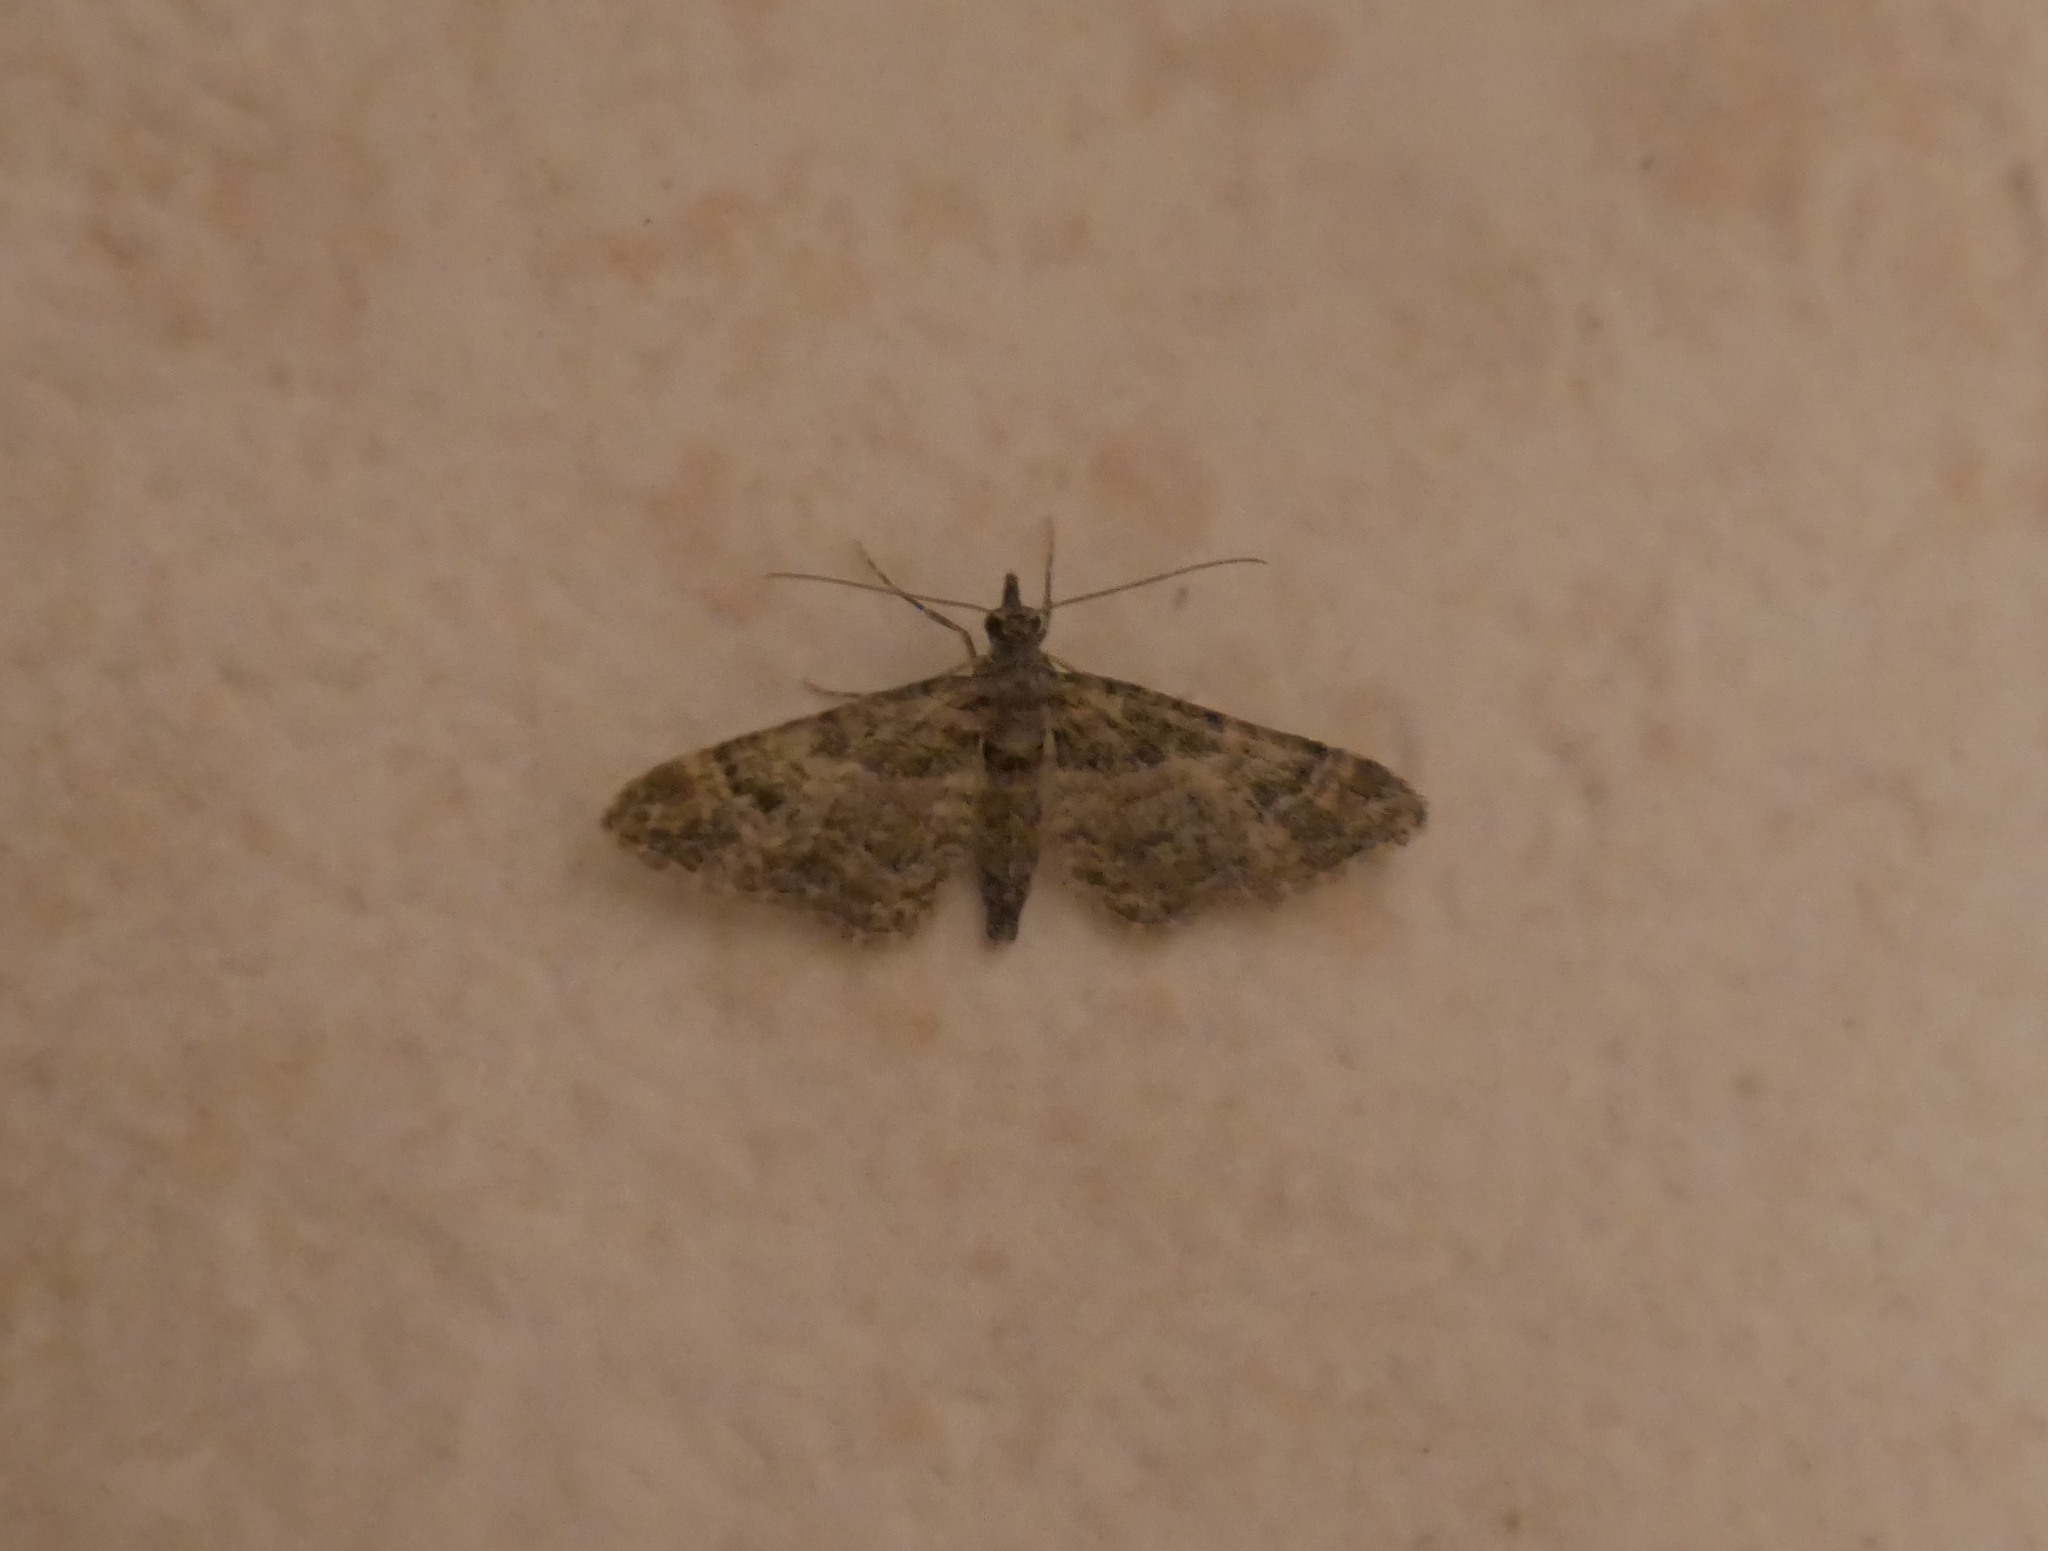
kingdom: Animalia
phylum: Arthropoda
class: Insecta
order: Lepidoptera
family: Geometridae
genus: Gymnoscelis
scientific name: Gymnoscelis rufifasciata
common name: Double-striped pug
